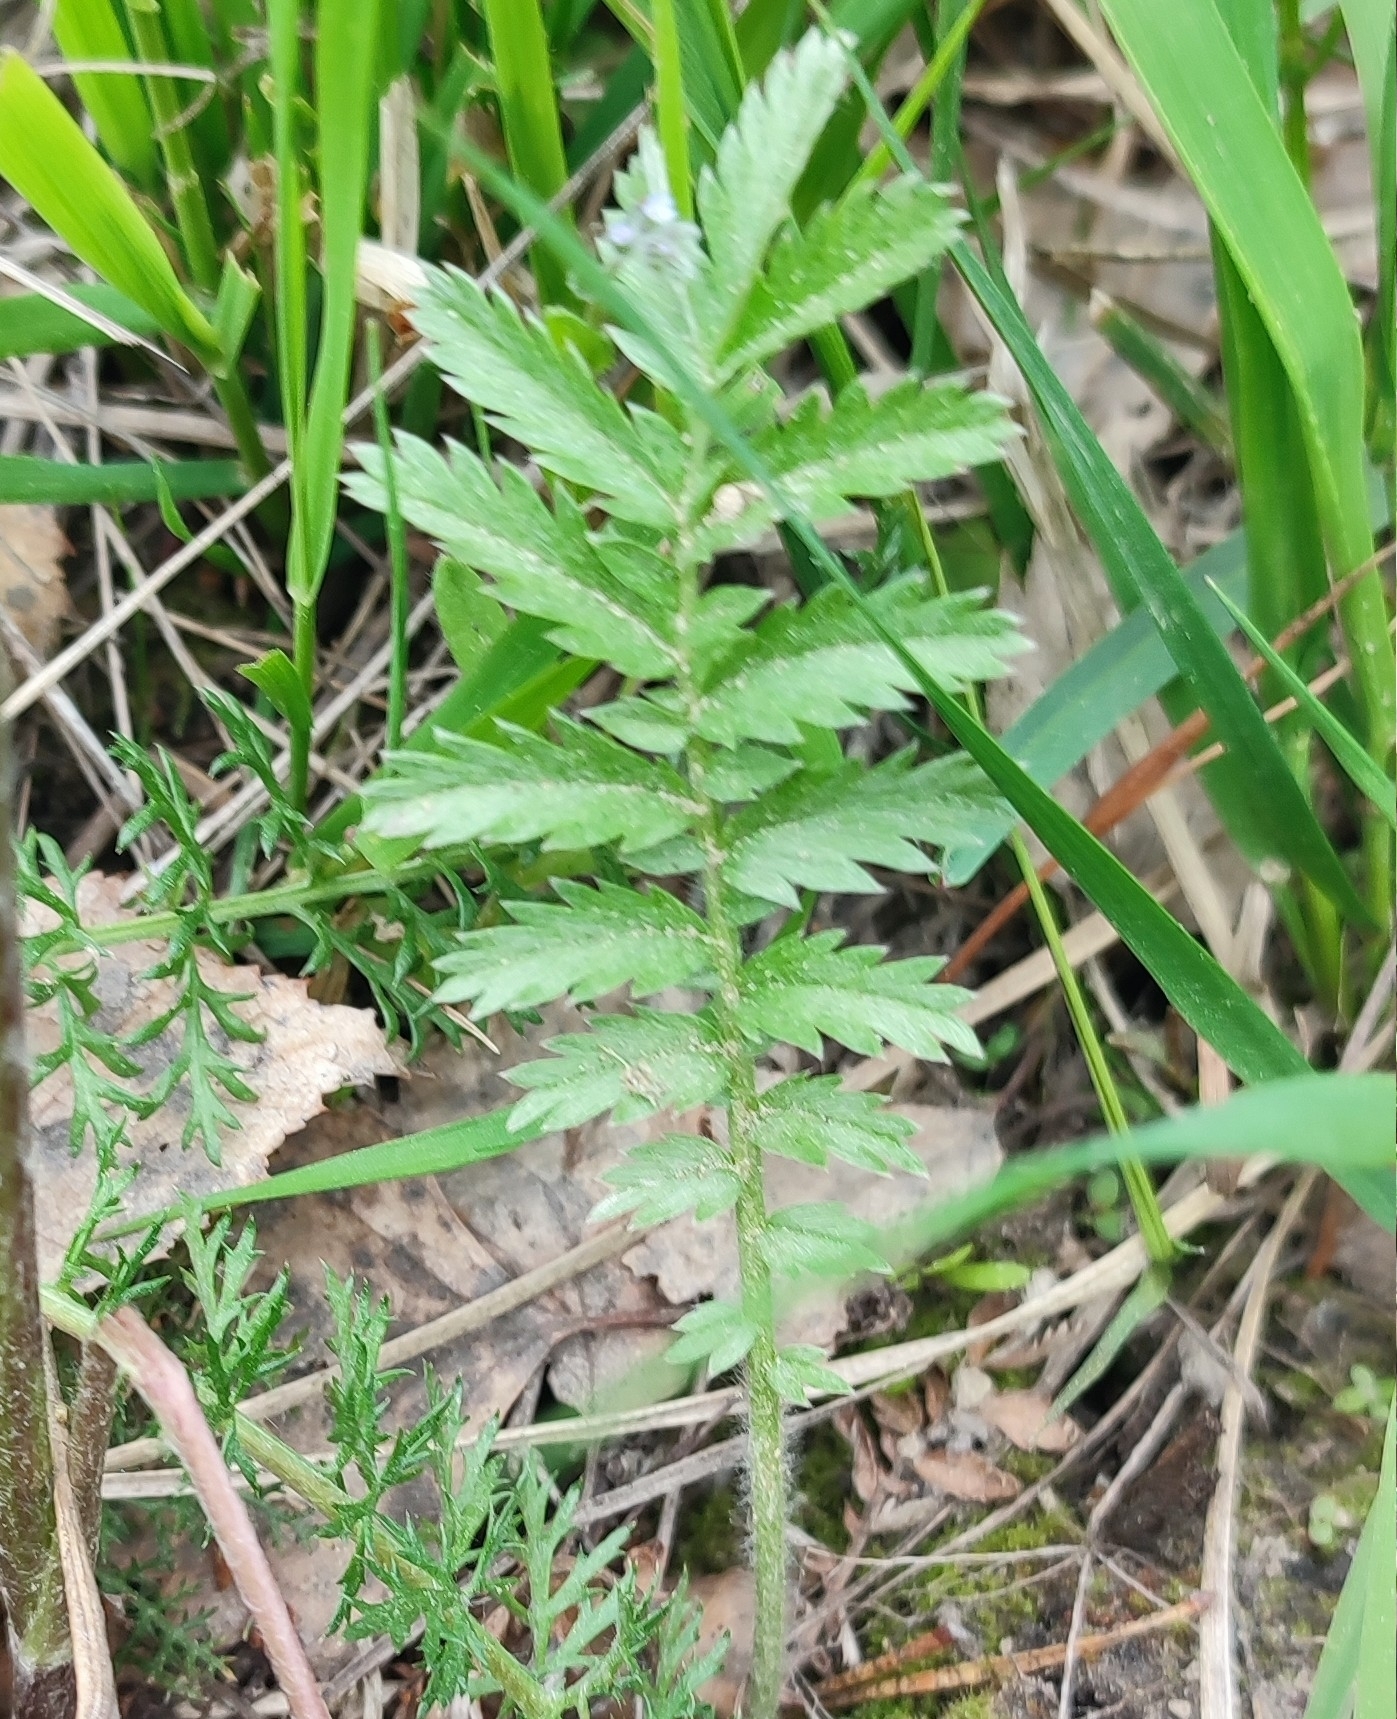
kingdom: Plantae
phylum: Tracheophyta
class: Magnoliopsida
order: Rosales
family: Rosaceae
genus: Argentina
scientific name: Argentina anserina
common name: Common silverweed
